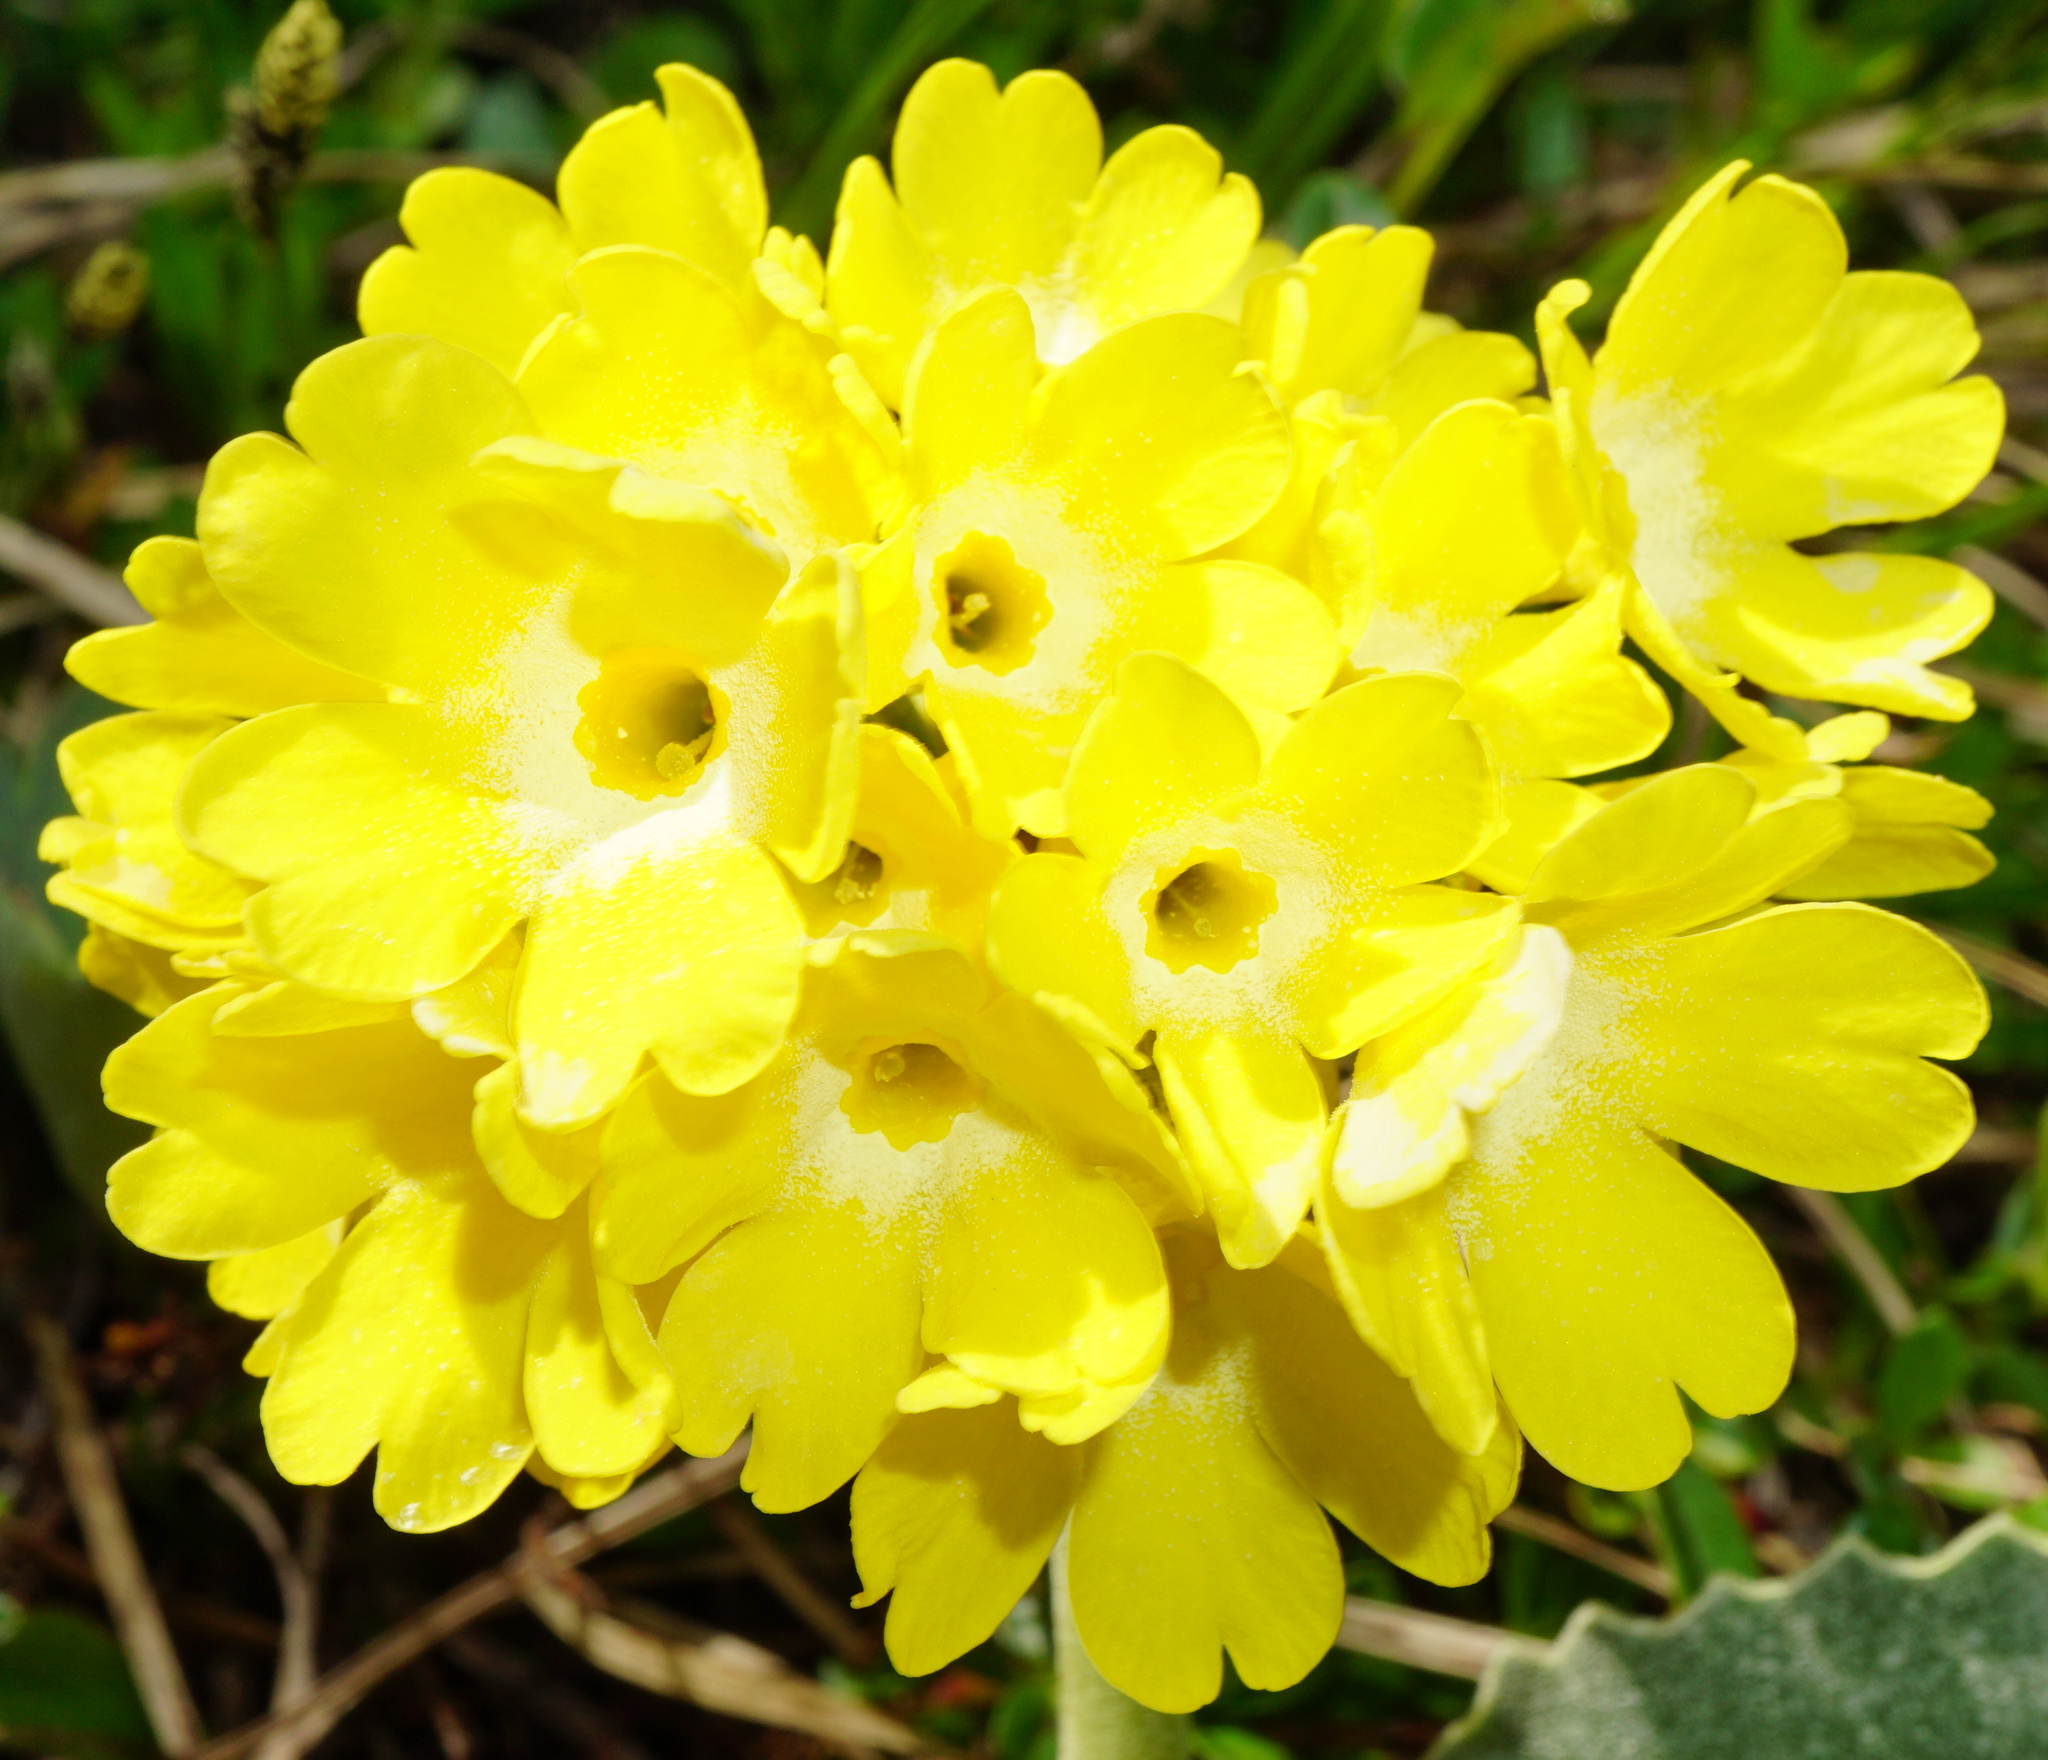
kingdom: Plantae
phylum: Tracheophyta
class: Magnoliopsida
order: Ericales
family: Primulaceae
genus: Primula
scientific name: Primula auricula
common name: Auricula
